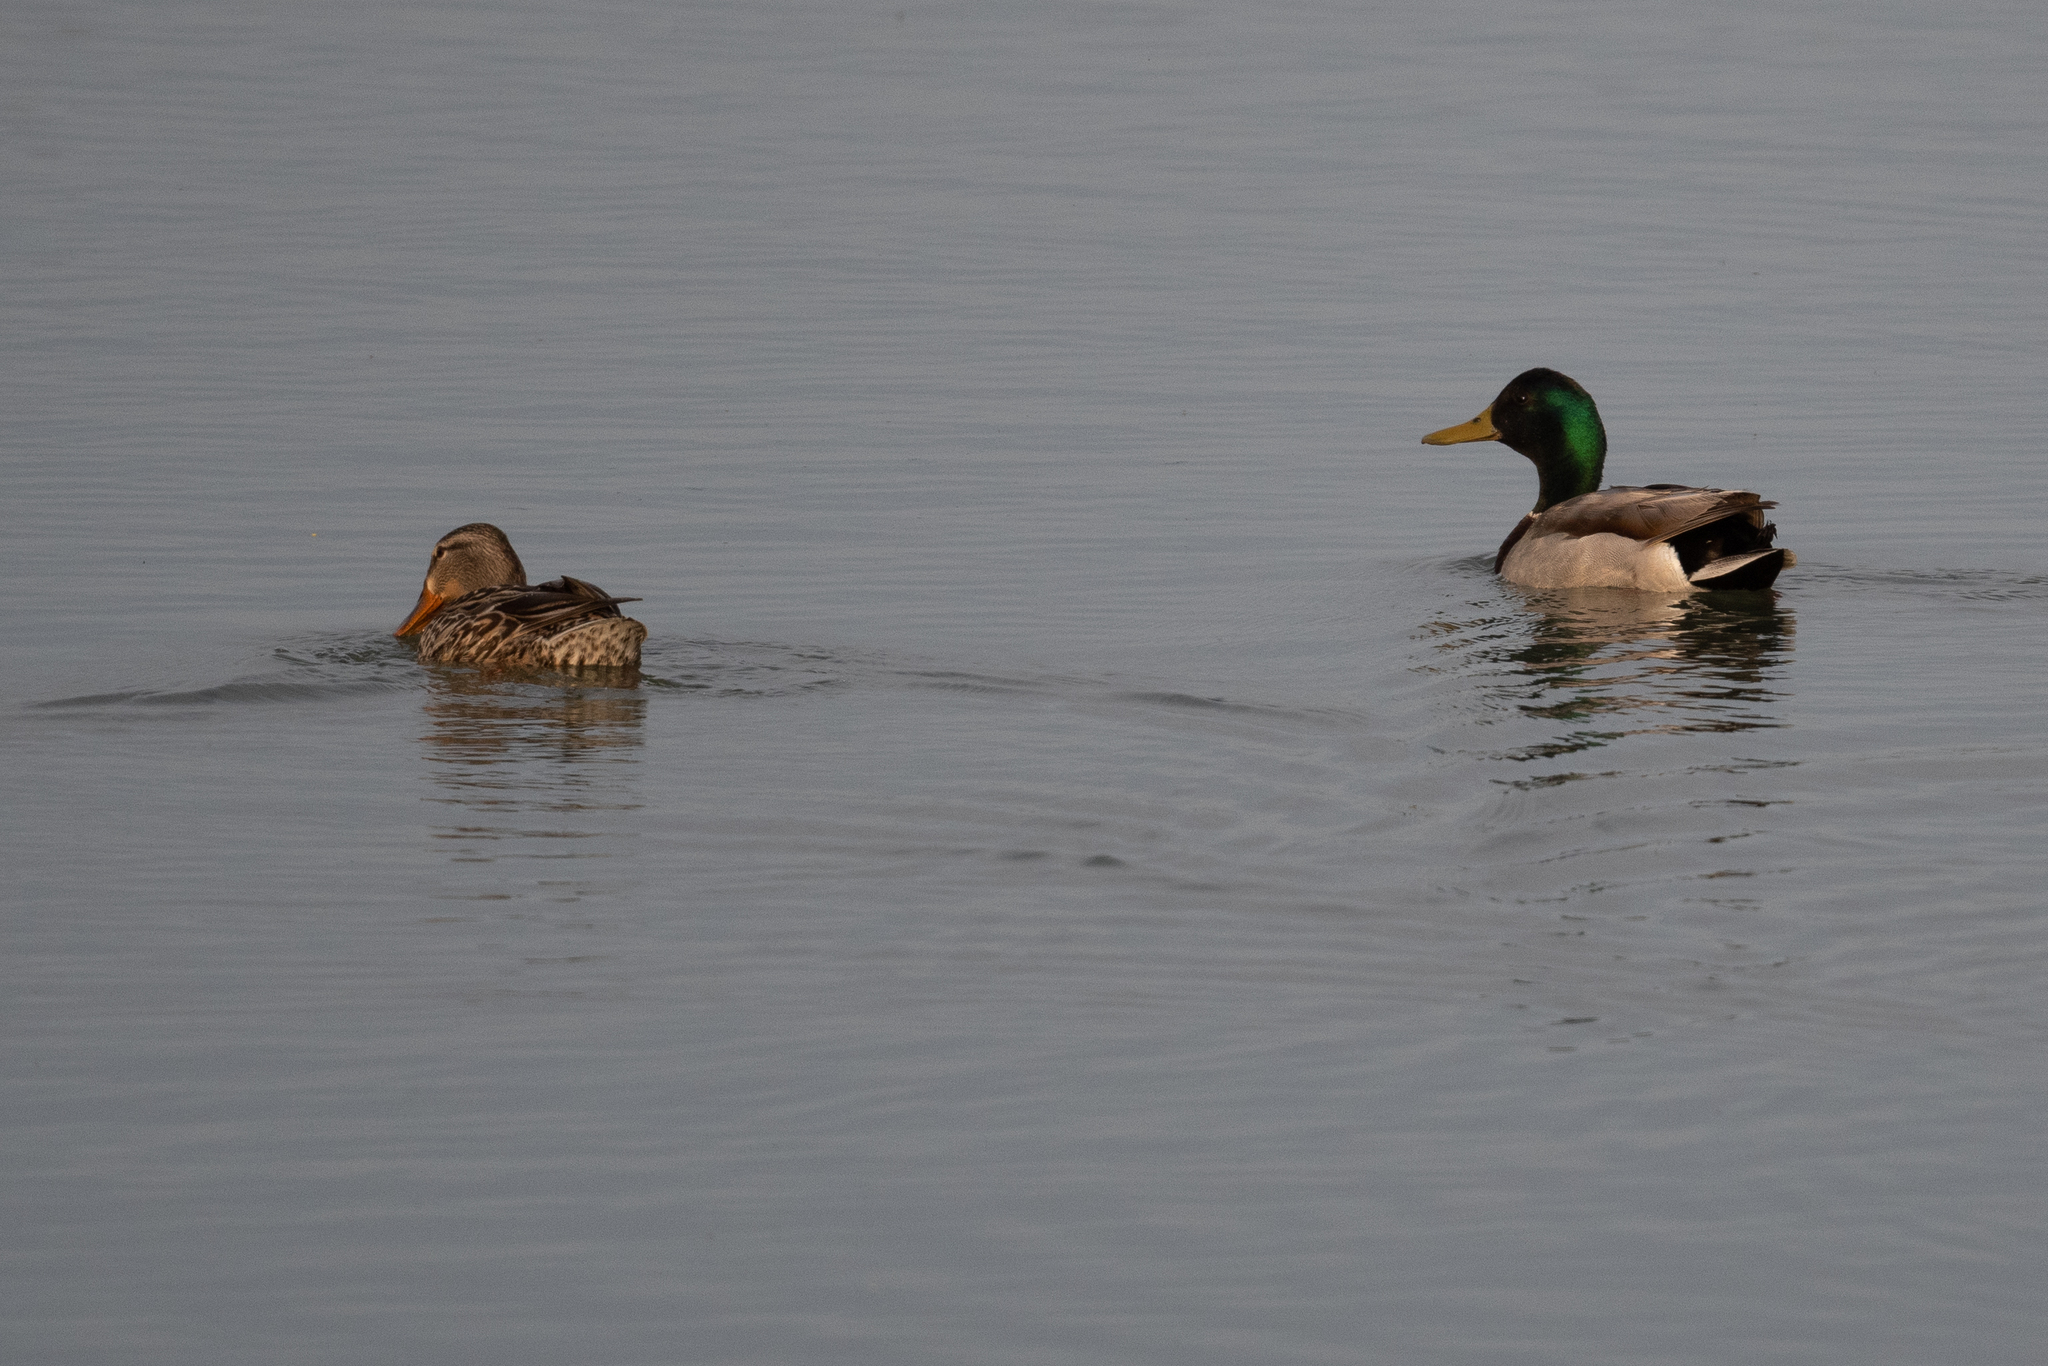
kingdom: Animalia
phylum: Chordata
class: Aves
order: Anseriformes
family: Anatidae
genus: Anas
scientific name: Anas platyrhynchos
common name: Mallard
